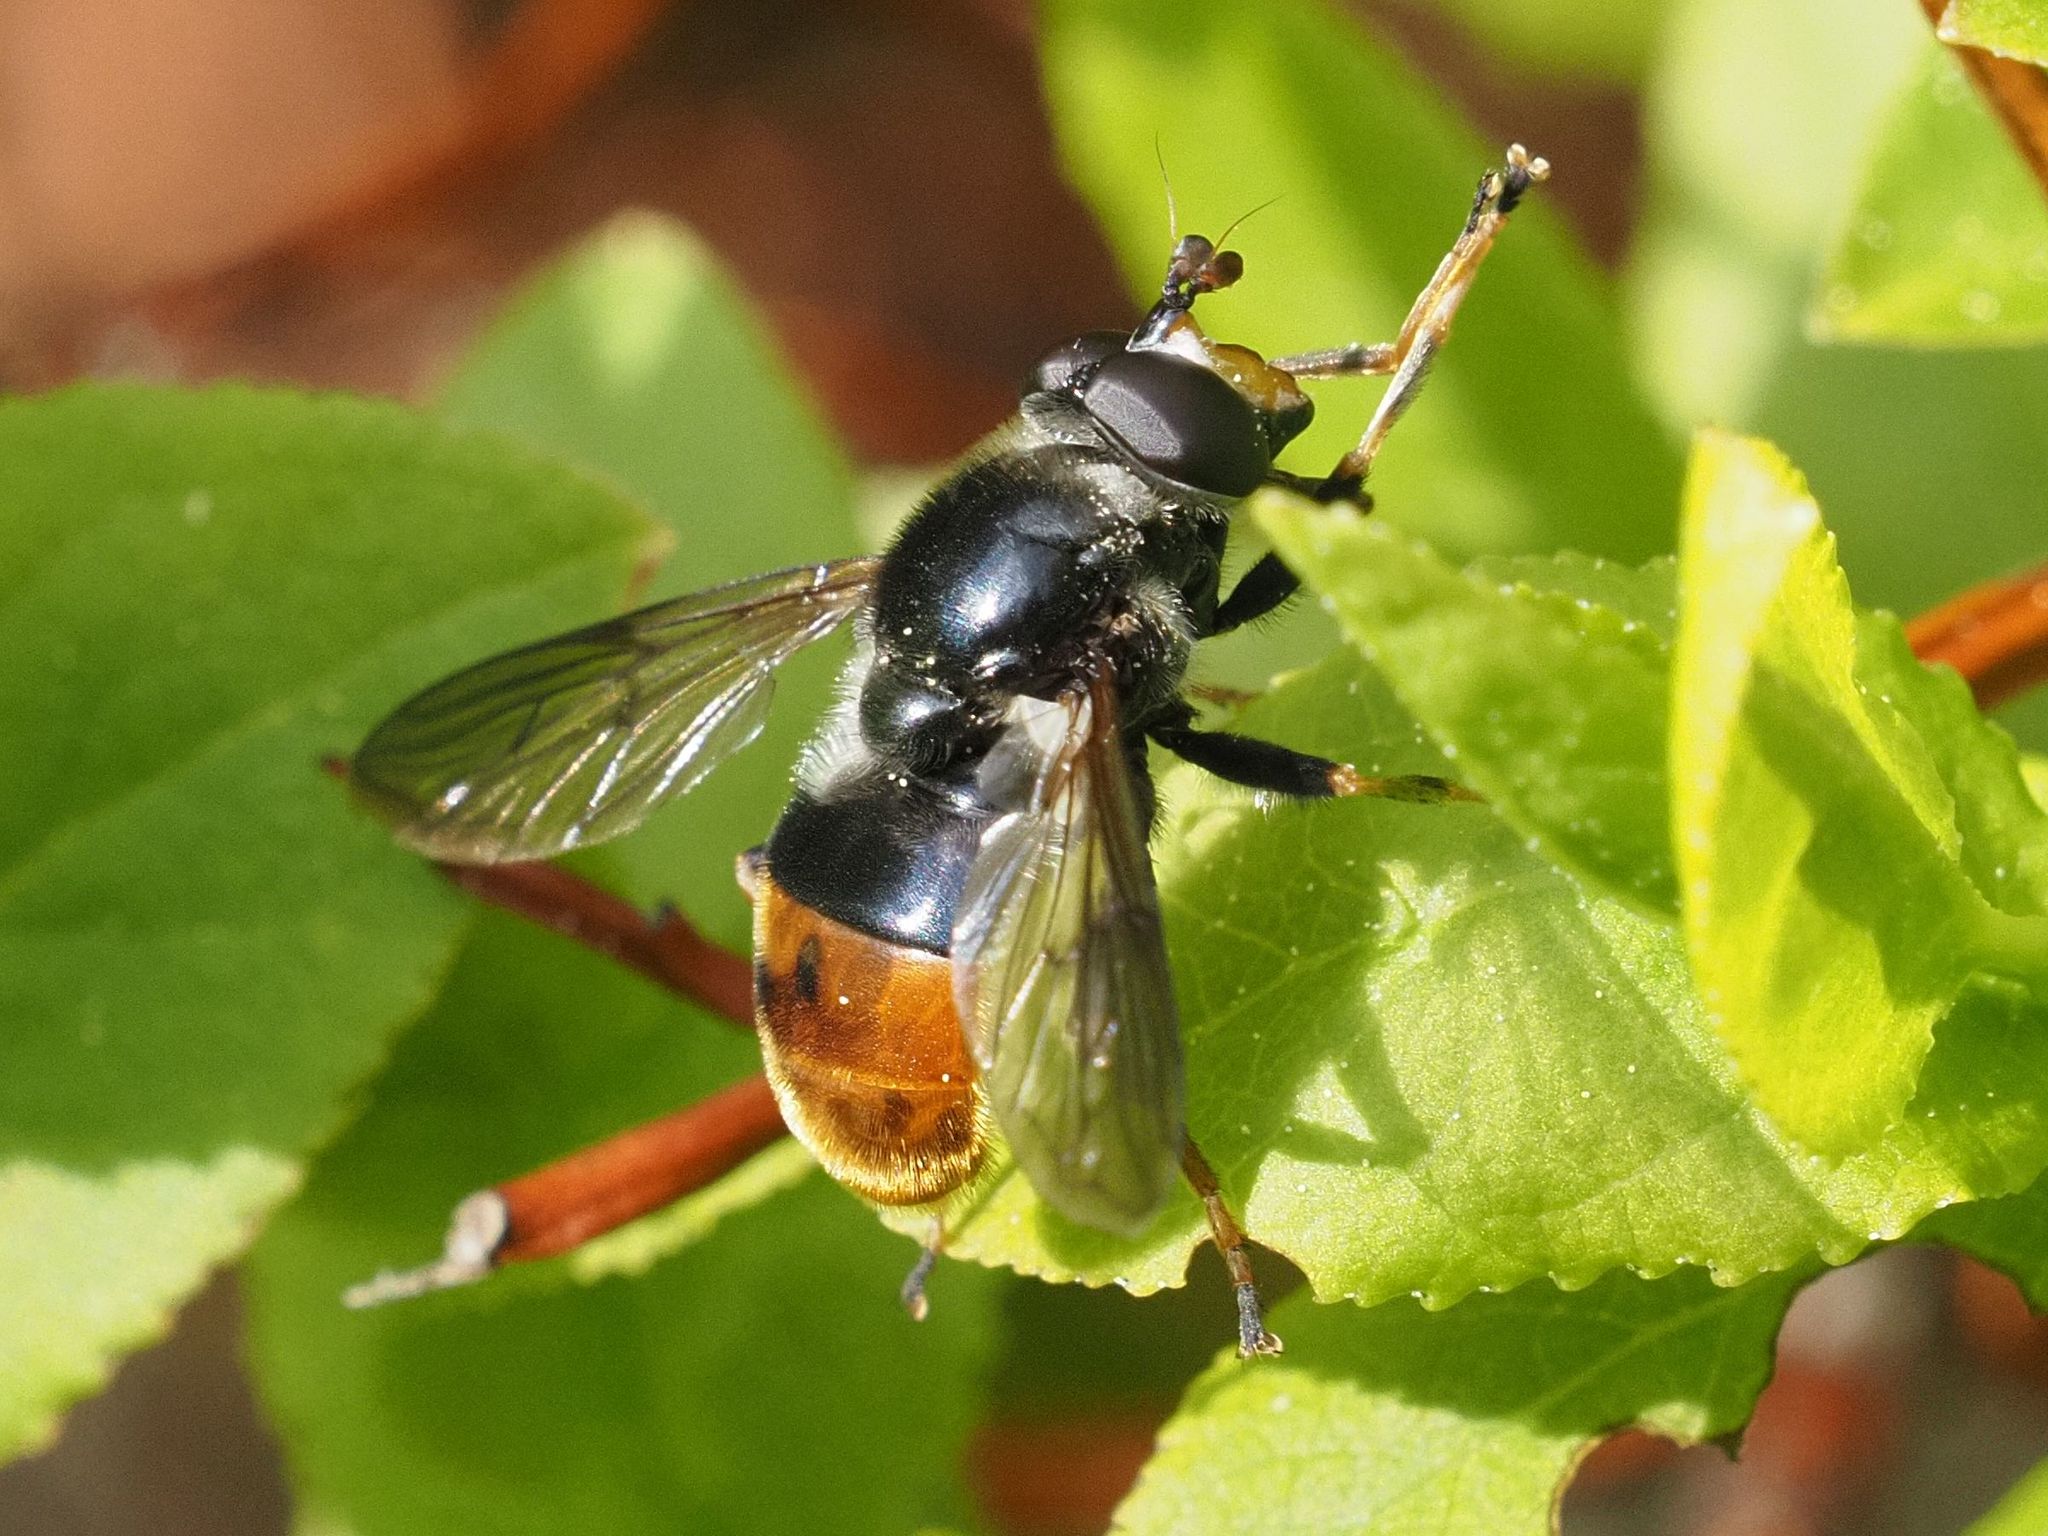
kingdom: Animalia
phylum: Arthropoda
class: Insecta
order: Diptera
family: Syrphidae
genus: Blera
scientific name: Blera fallax
